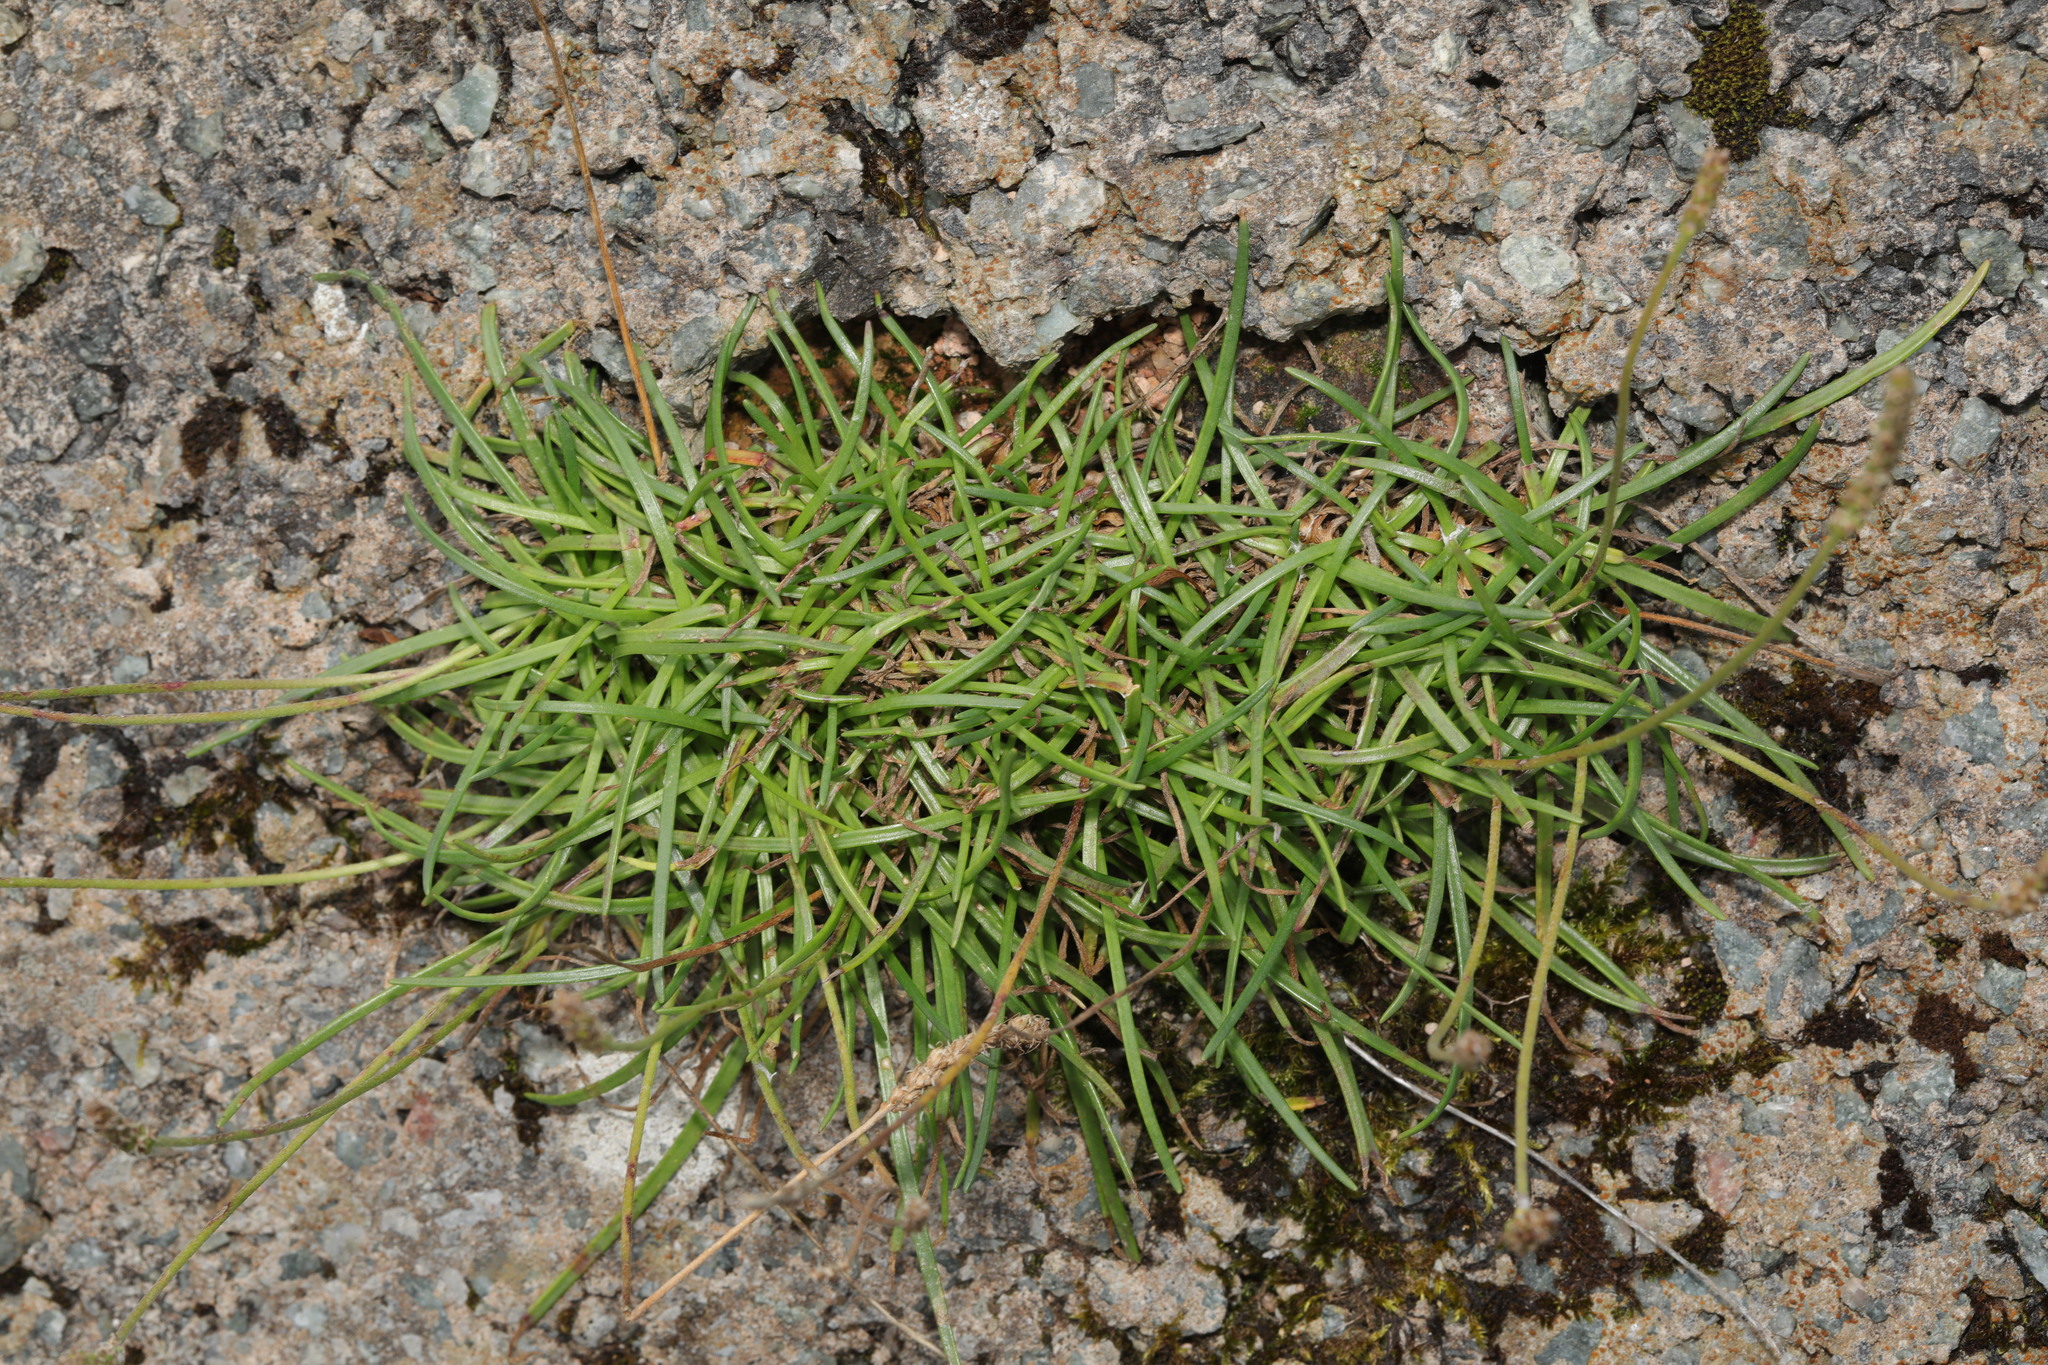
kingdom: Plantae
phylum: Tracheophyta
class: Magnoliopsida
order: Lamiales
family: Plantaginaceae
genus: Plantago
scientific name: Plantago maritima
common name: Sea plantain
